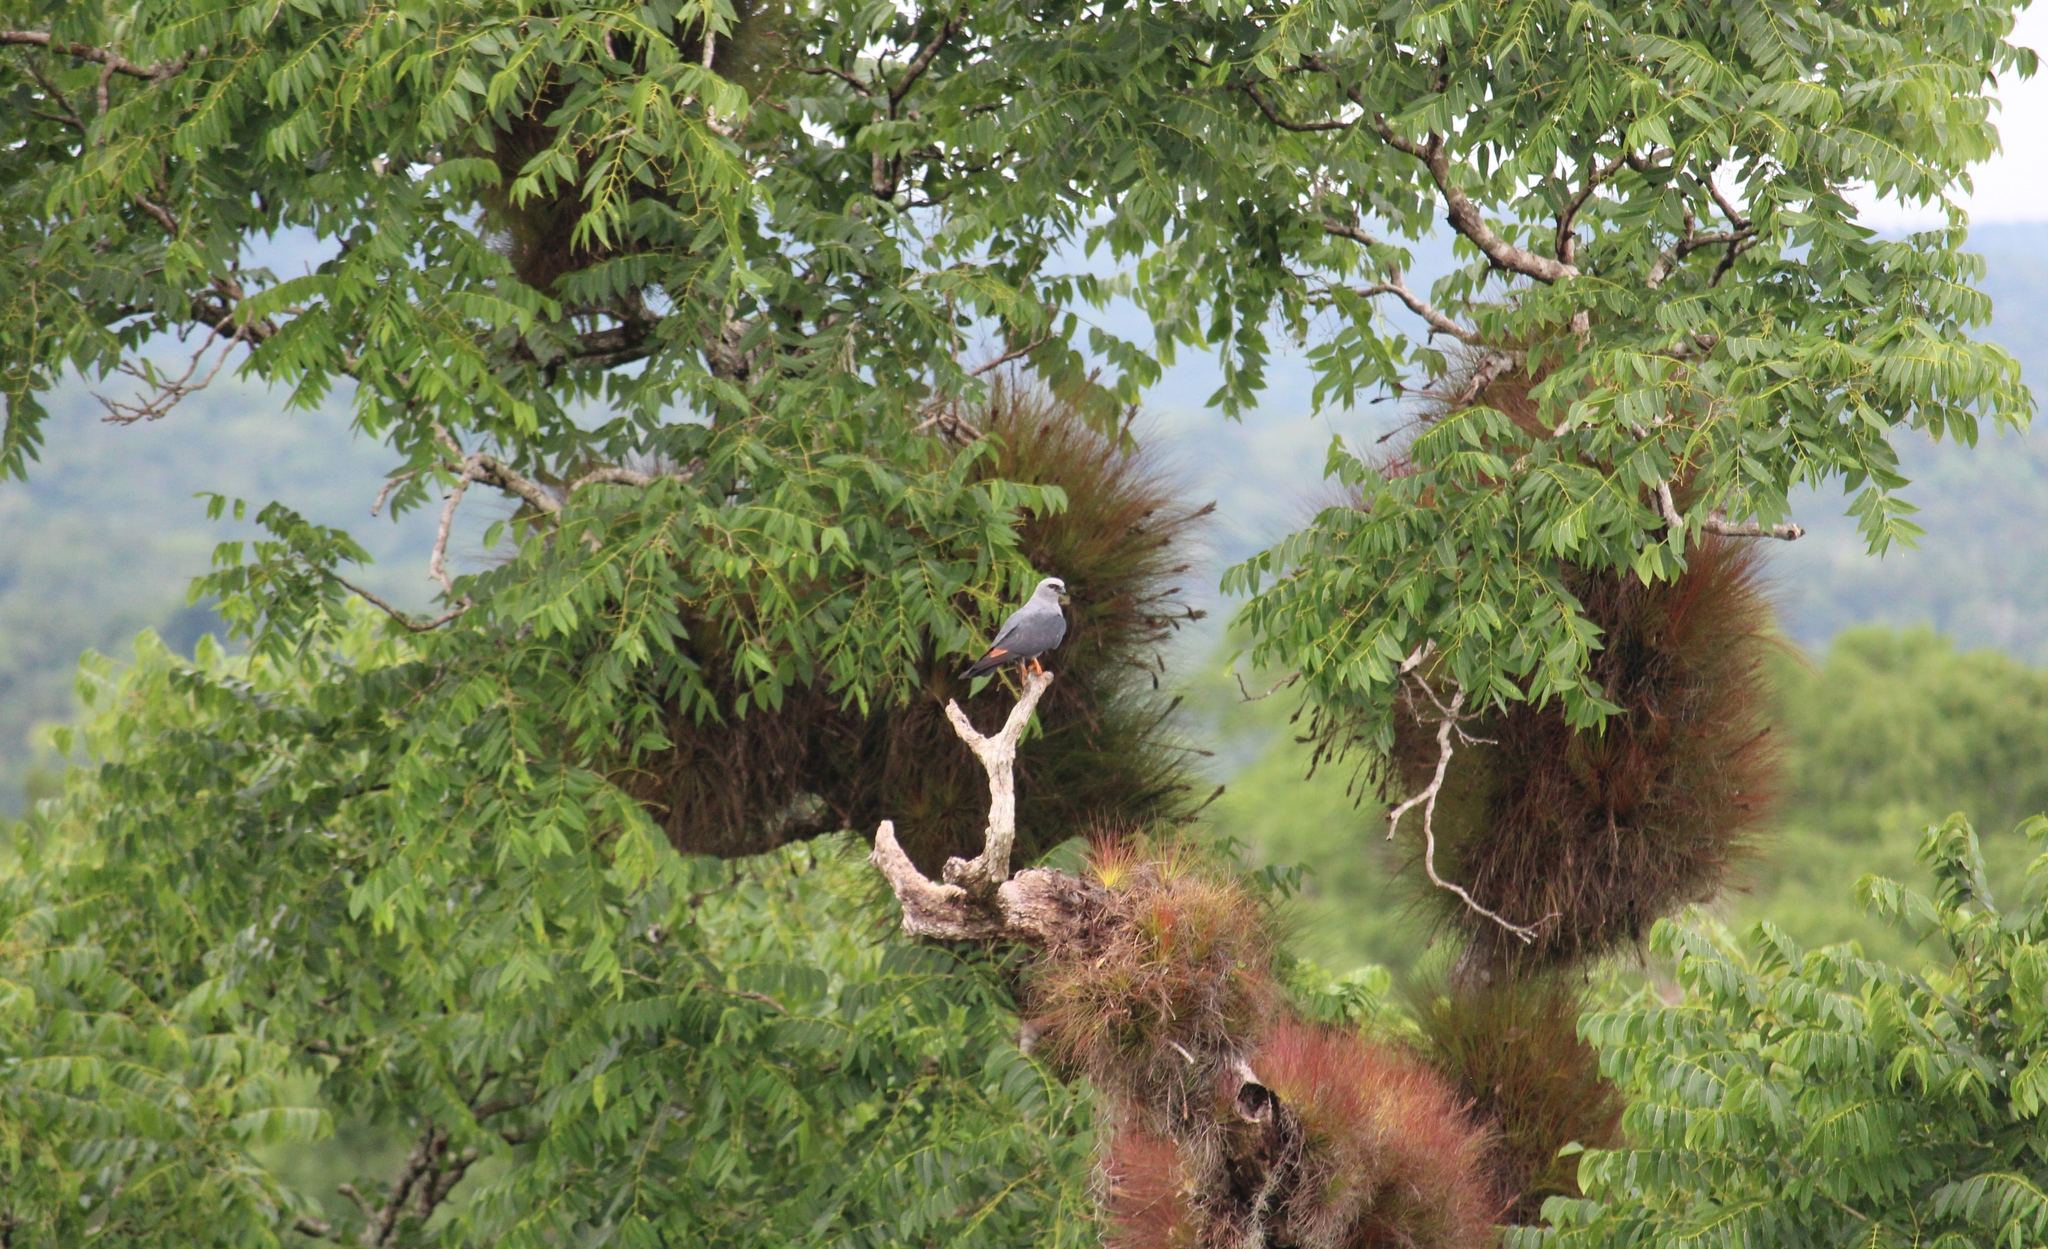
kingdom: Animalia
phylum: Chordata
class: Aves
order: Accipitriformes
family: Accipitridae
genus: Ictinia
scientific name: Ictinia plumbea
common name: Plumbeous kite
